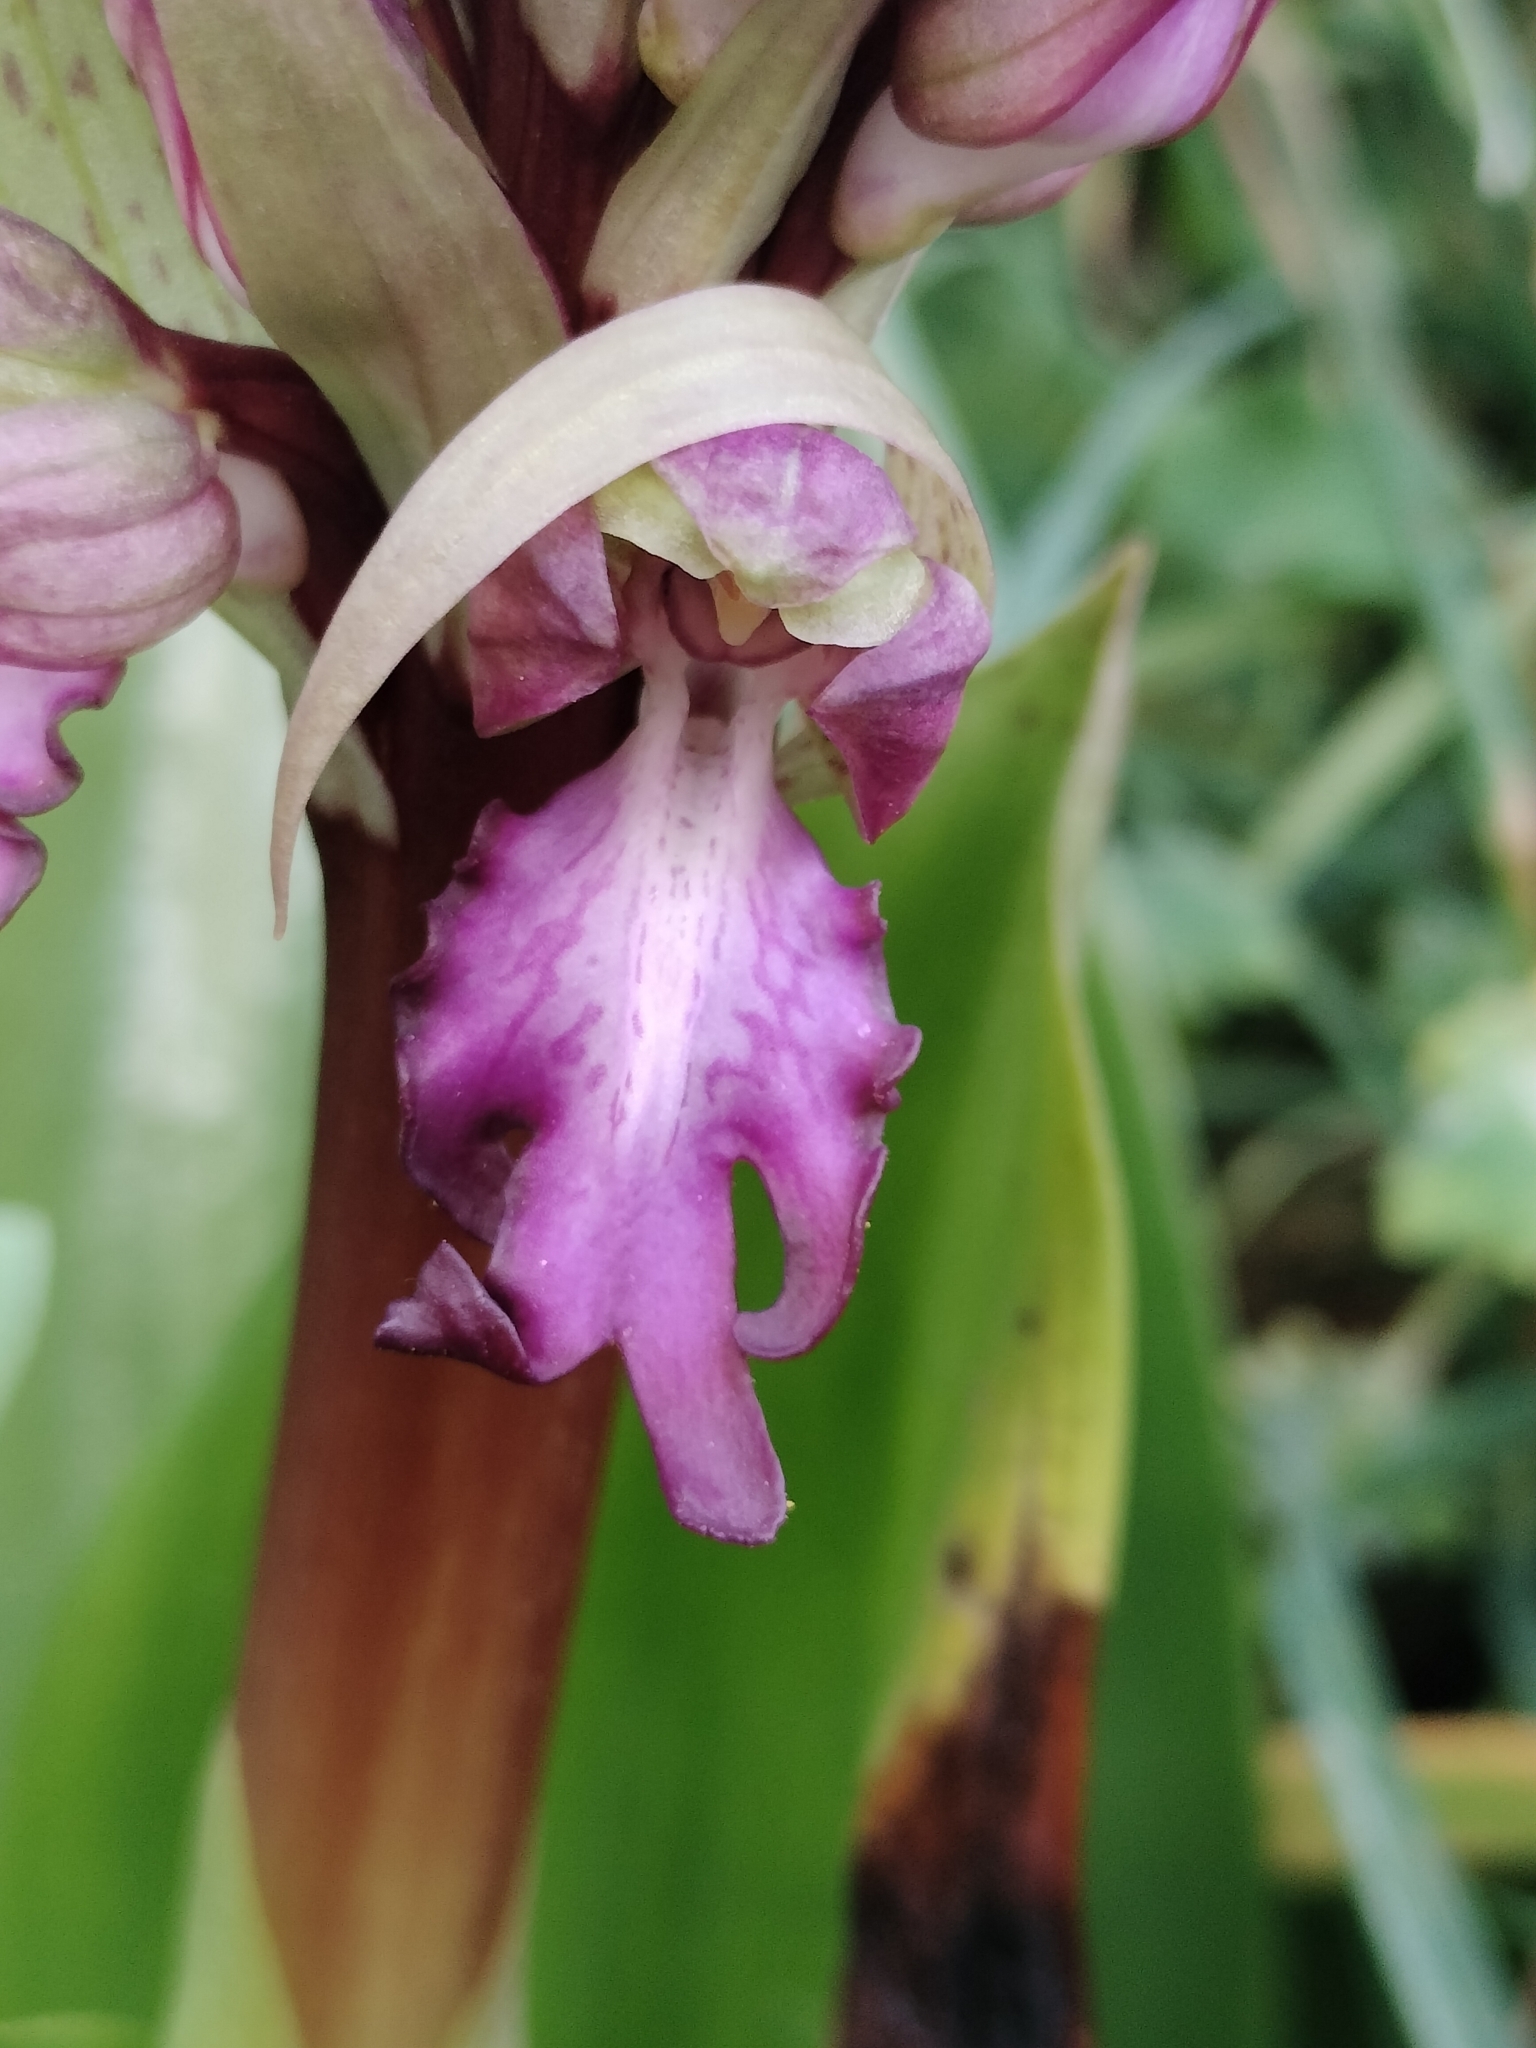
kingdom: Plantae
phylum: Tracheophyta
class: Liliopsida
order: Asparagales
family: Orchidaceae
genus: Himantoglossum
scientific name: Himantoglossum robertianum
